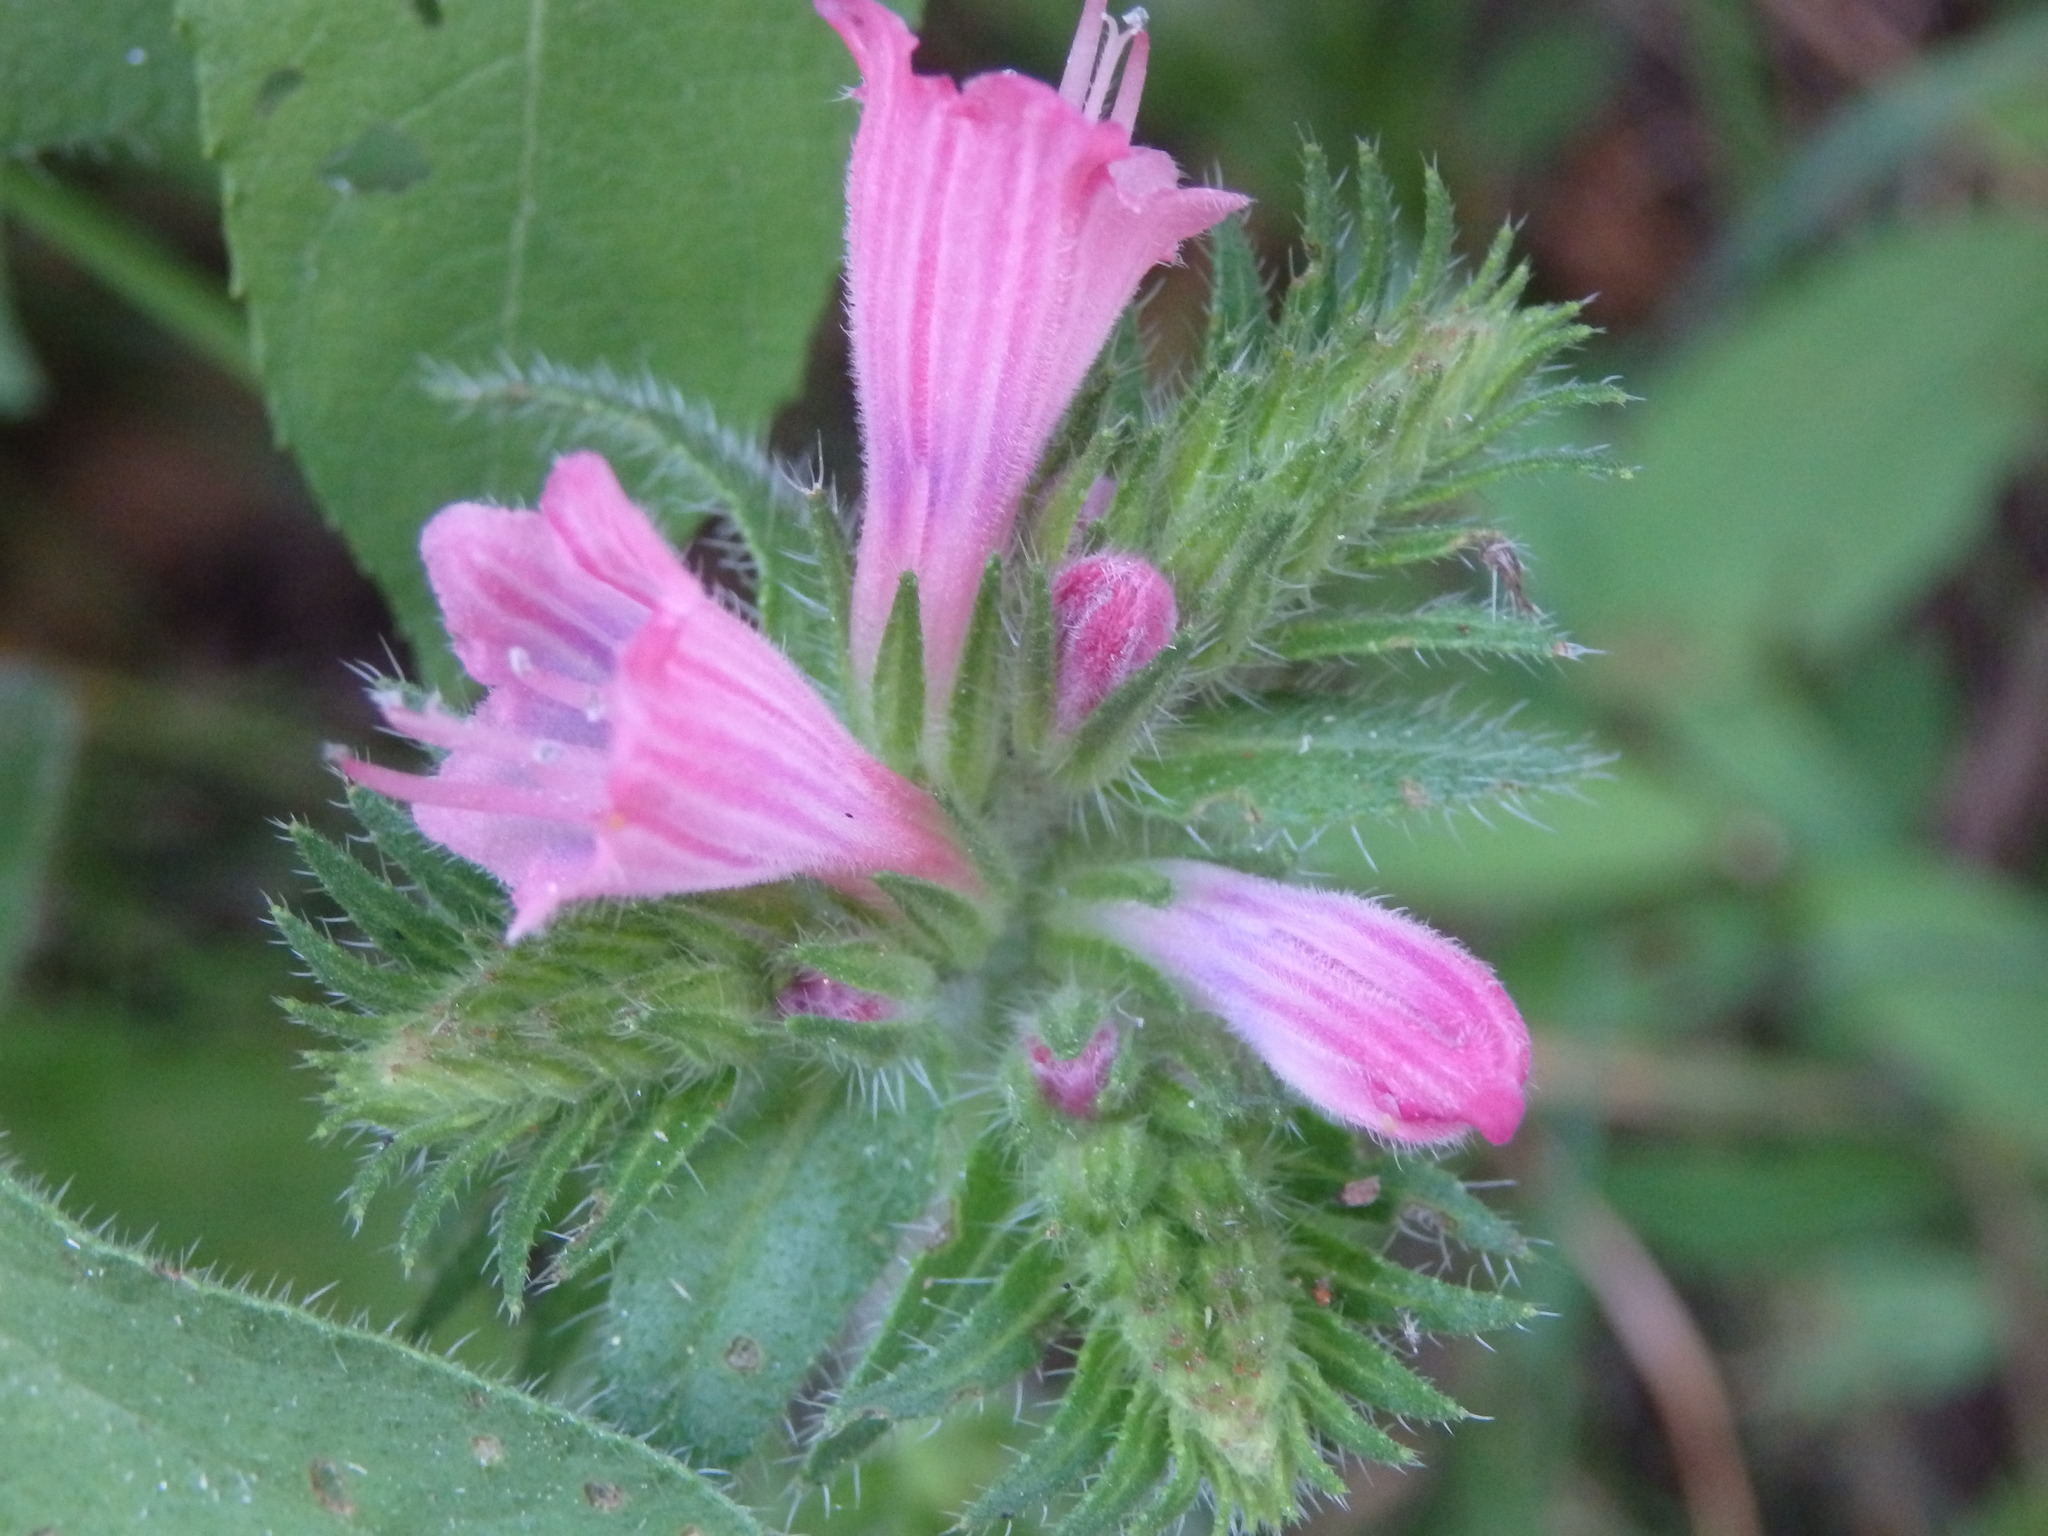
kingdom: Plantae
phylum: Tracheophyta
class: Magnoliopsida
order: Boraginales
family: Boraginaceae
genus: Echium
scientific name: Echium rosulatum
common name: Lax viper's-bugloss
